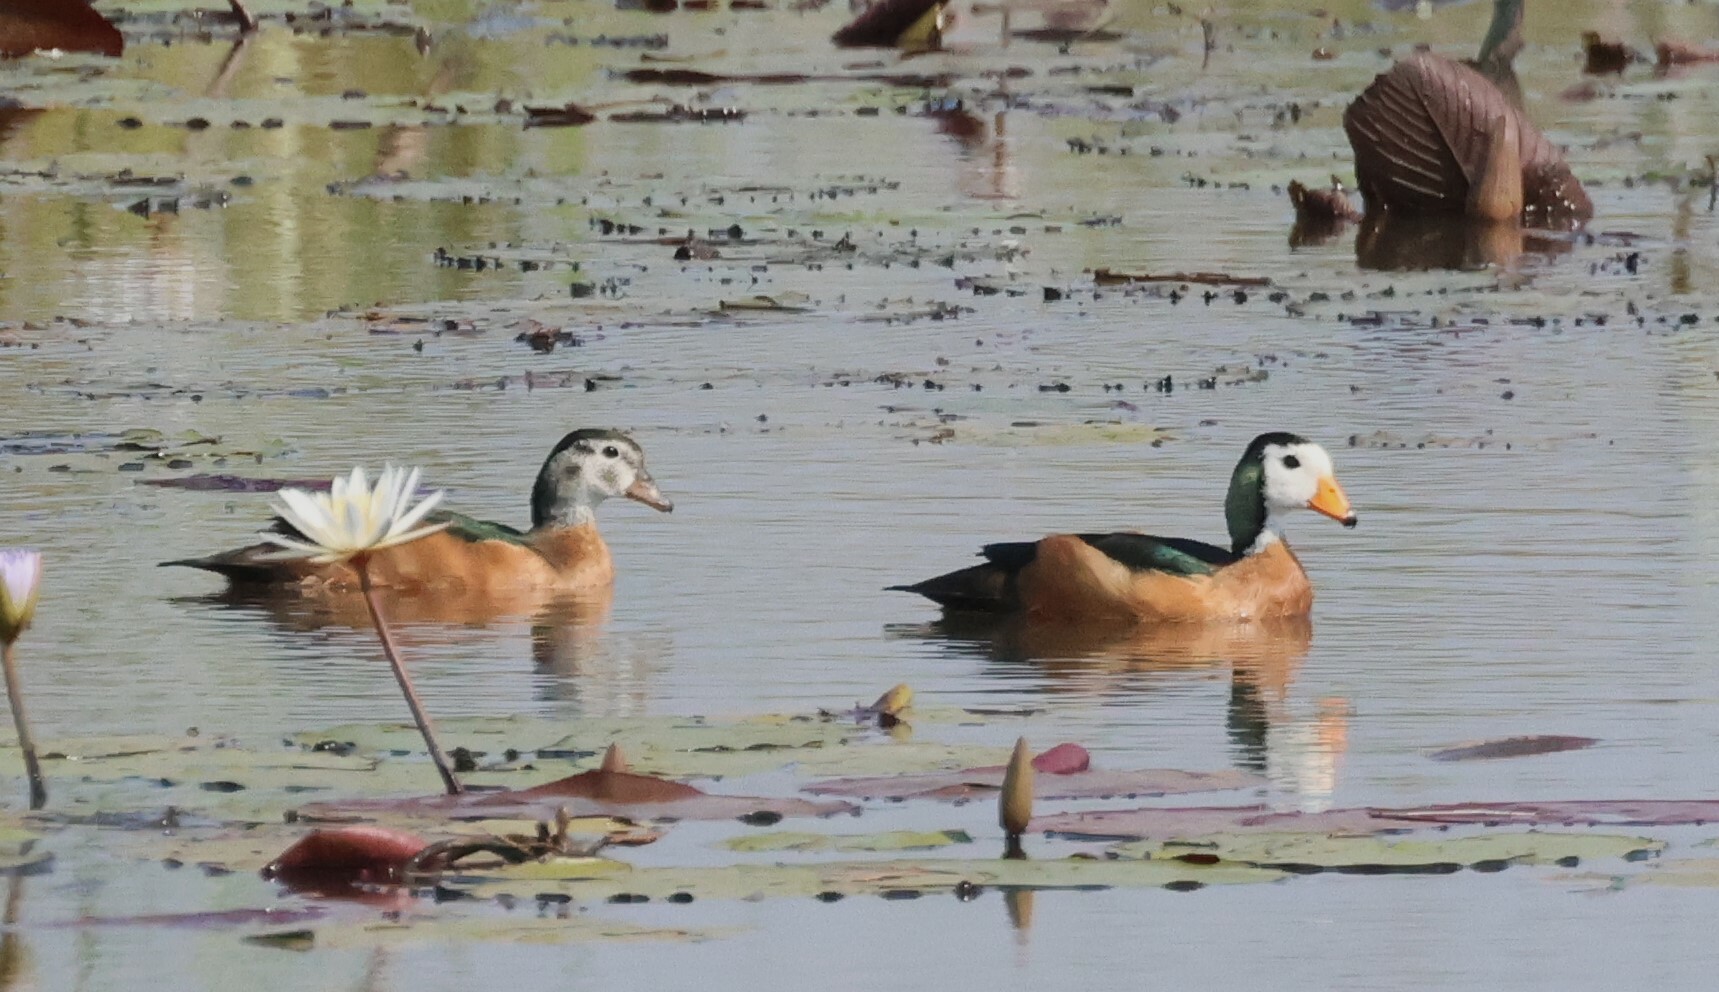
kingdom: Animalia
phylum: Chordata
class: Aves
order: Anseriformes
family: Anatidae
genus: Nettapus
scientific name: Nettapus auritus
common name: African pygmy-goose
